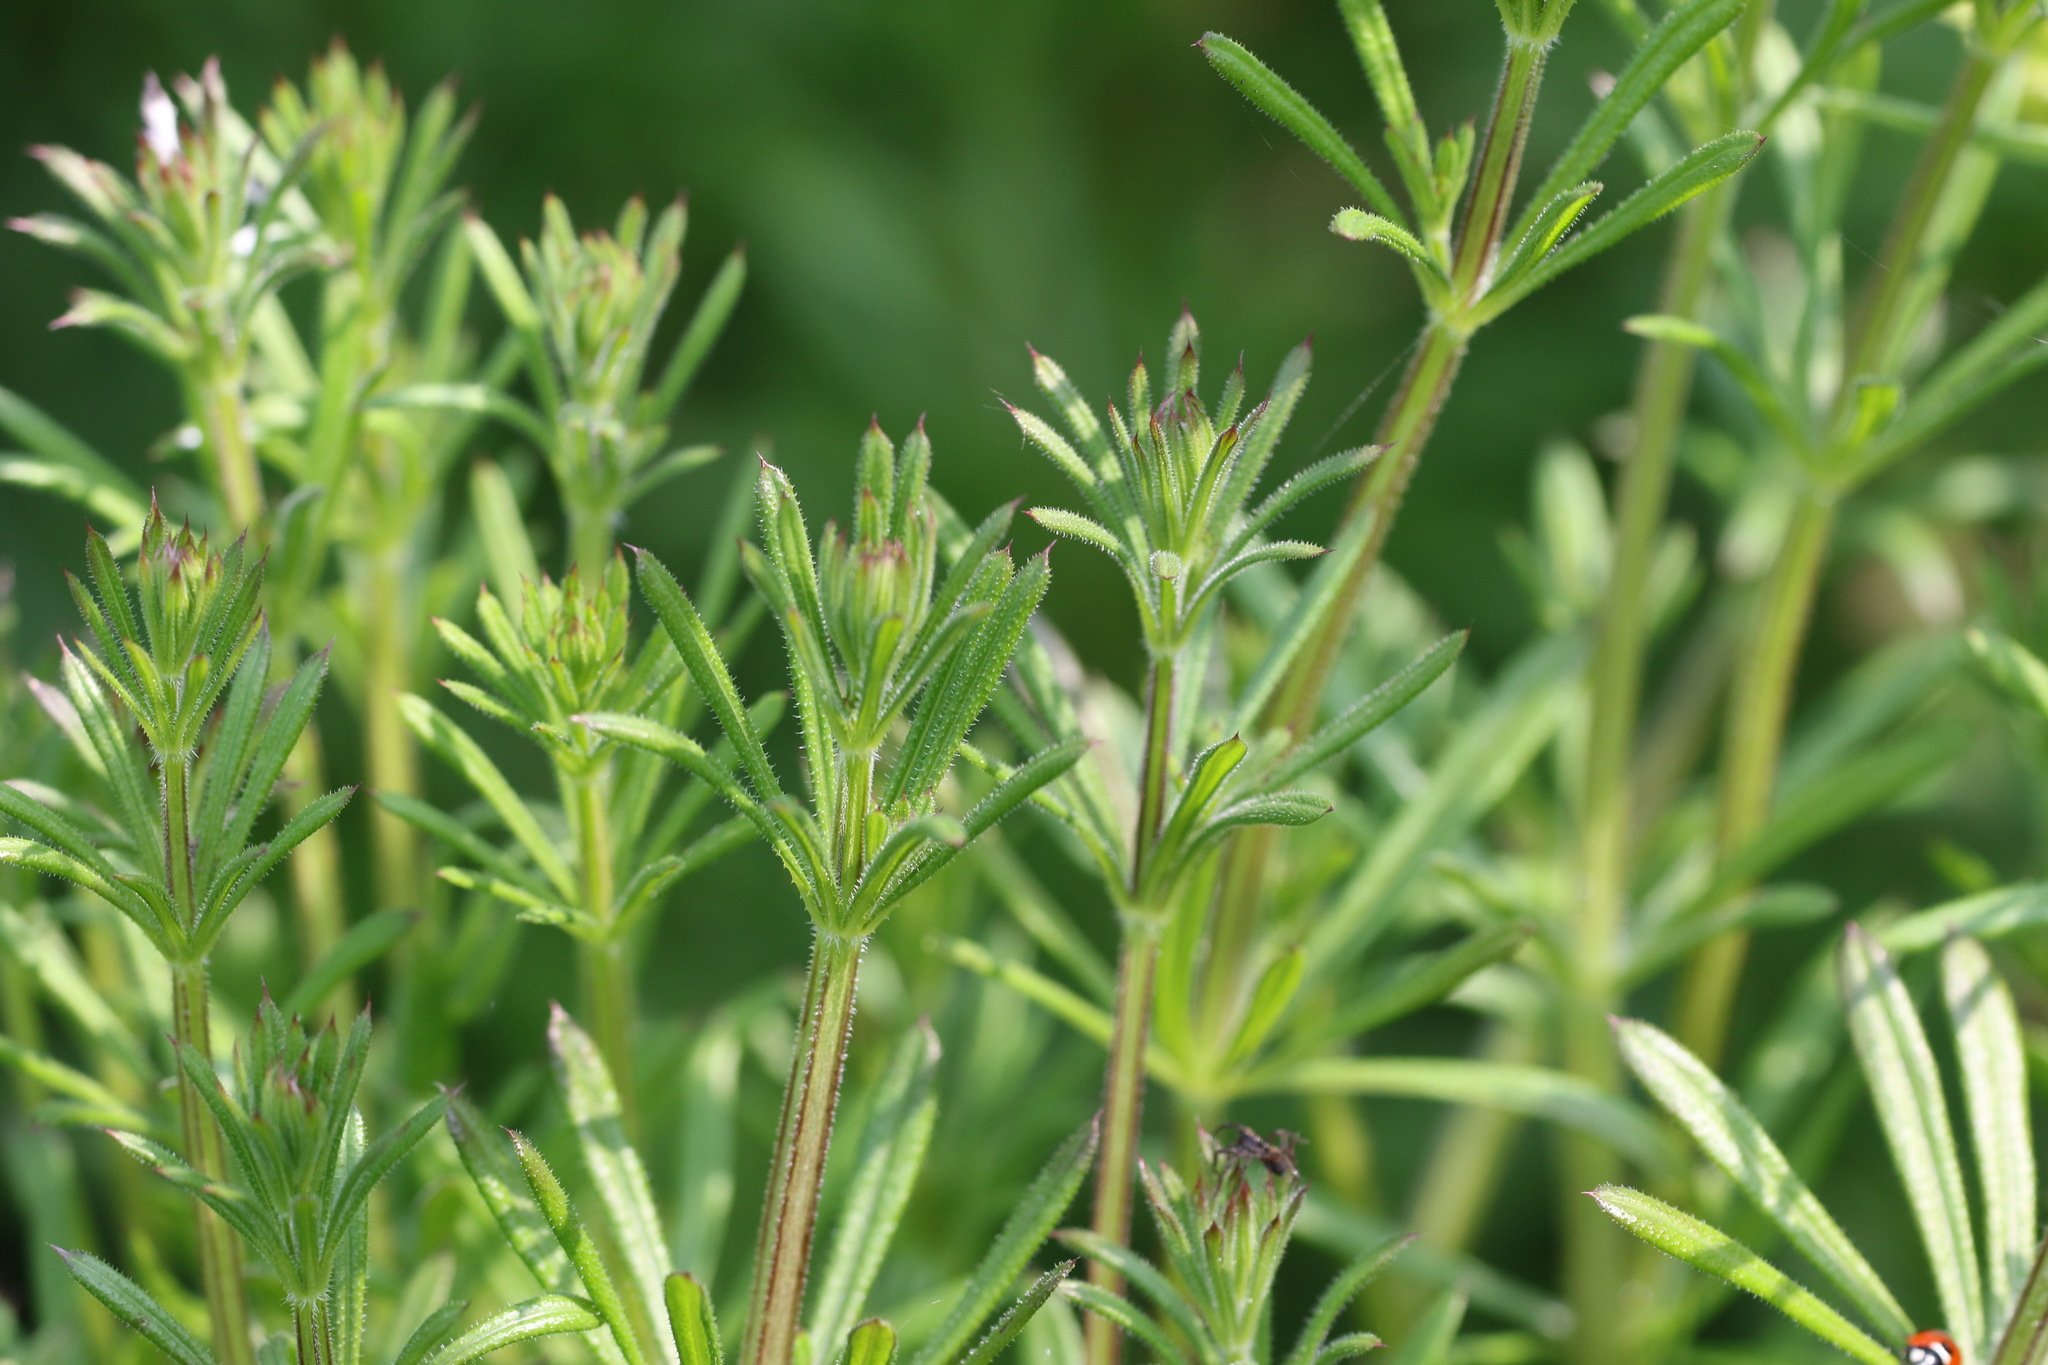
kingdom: Plantae
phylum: Tracheophyta
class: Magnoliopsida
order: Gentianales
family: Rubiaceae
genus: Galium
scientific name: Galium aparine
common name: Cleavers
